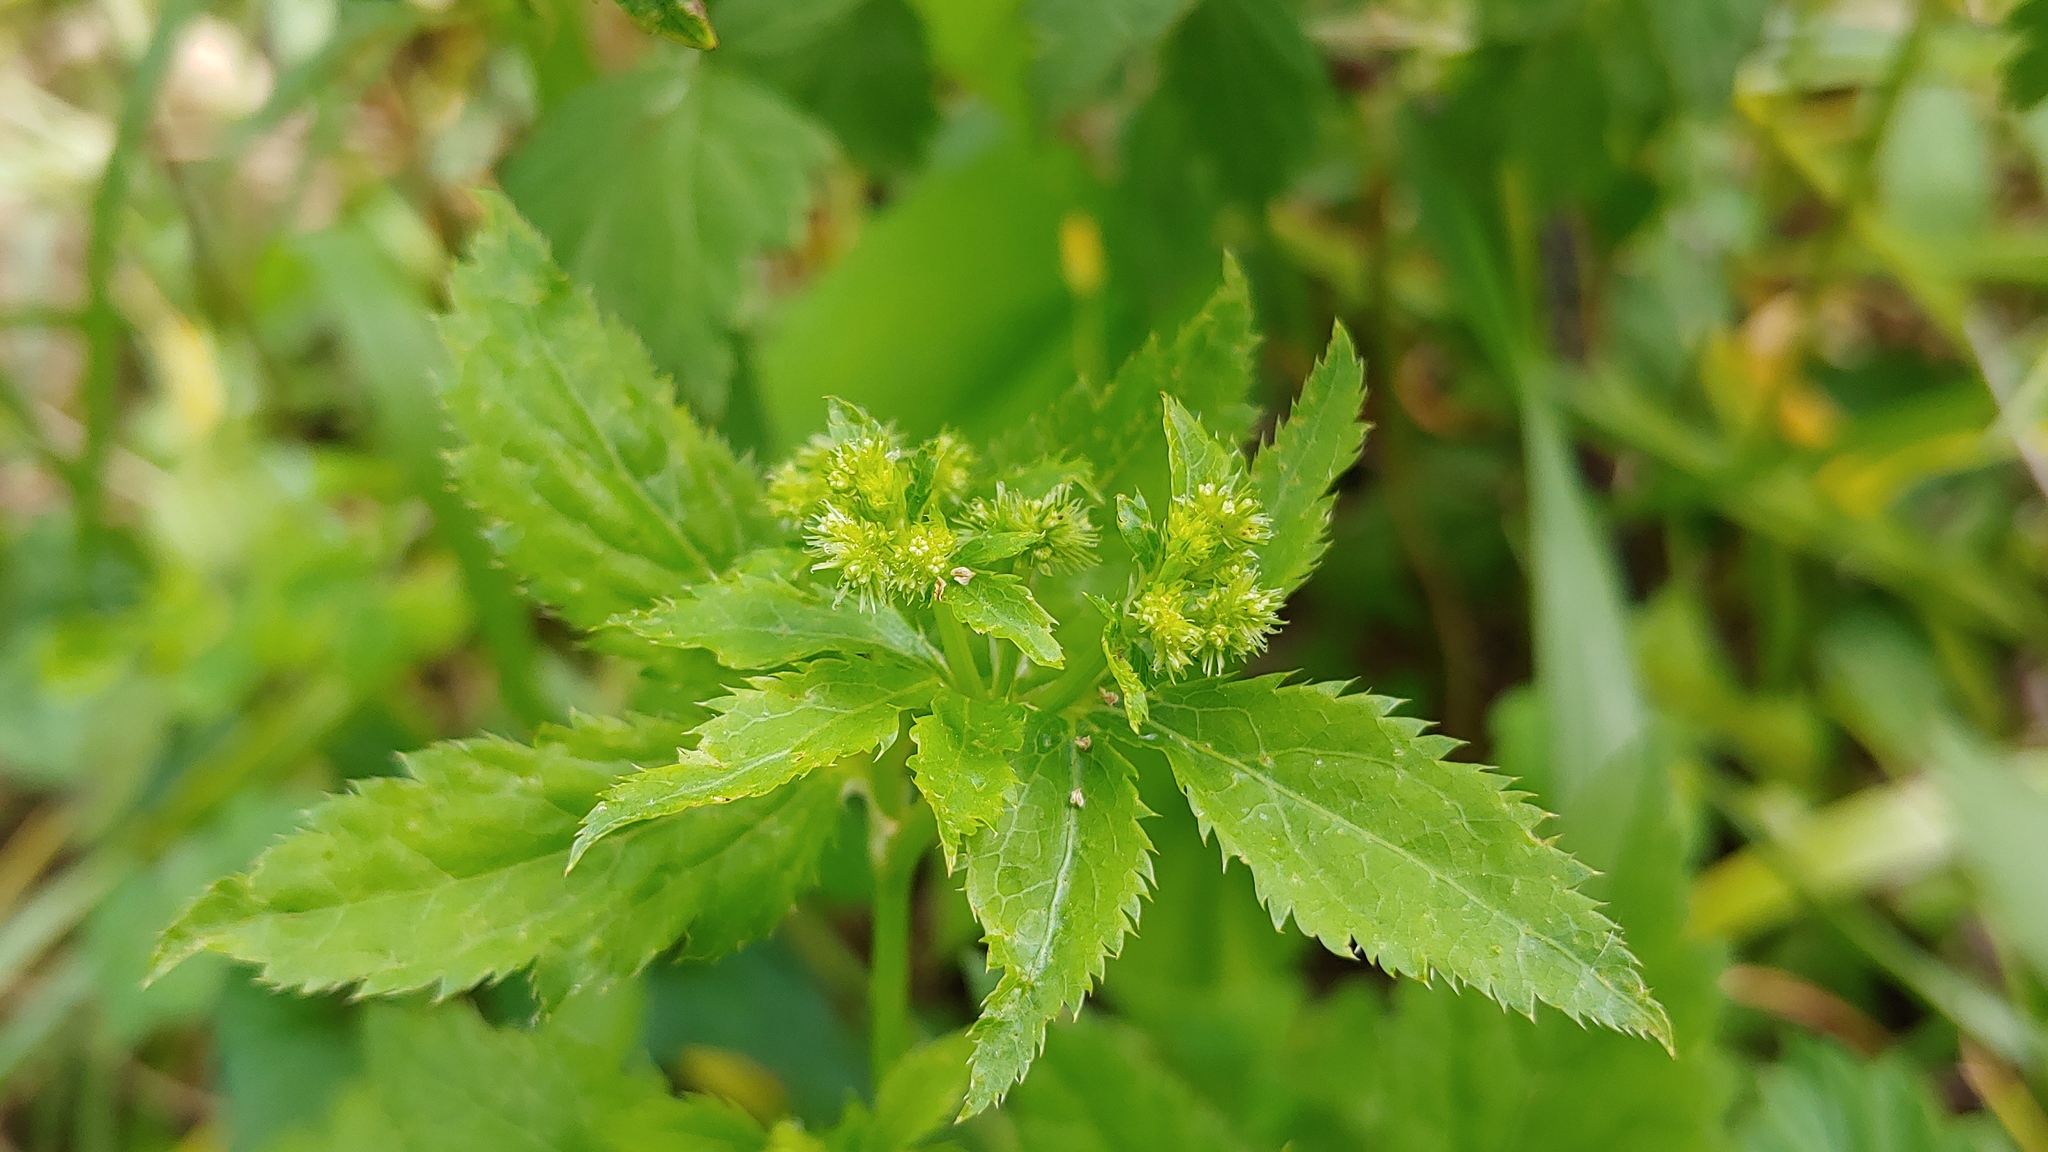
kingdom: Plantae
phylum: Tracheophyta
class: Magnoliopsida
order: Apiales
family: Apiaceae
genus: Sanicula
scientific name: Sanicula canadensis
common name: Canada sanicle
